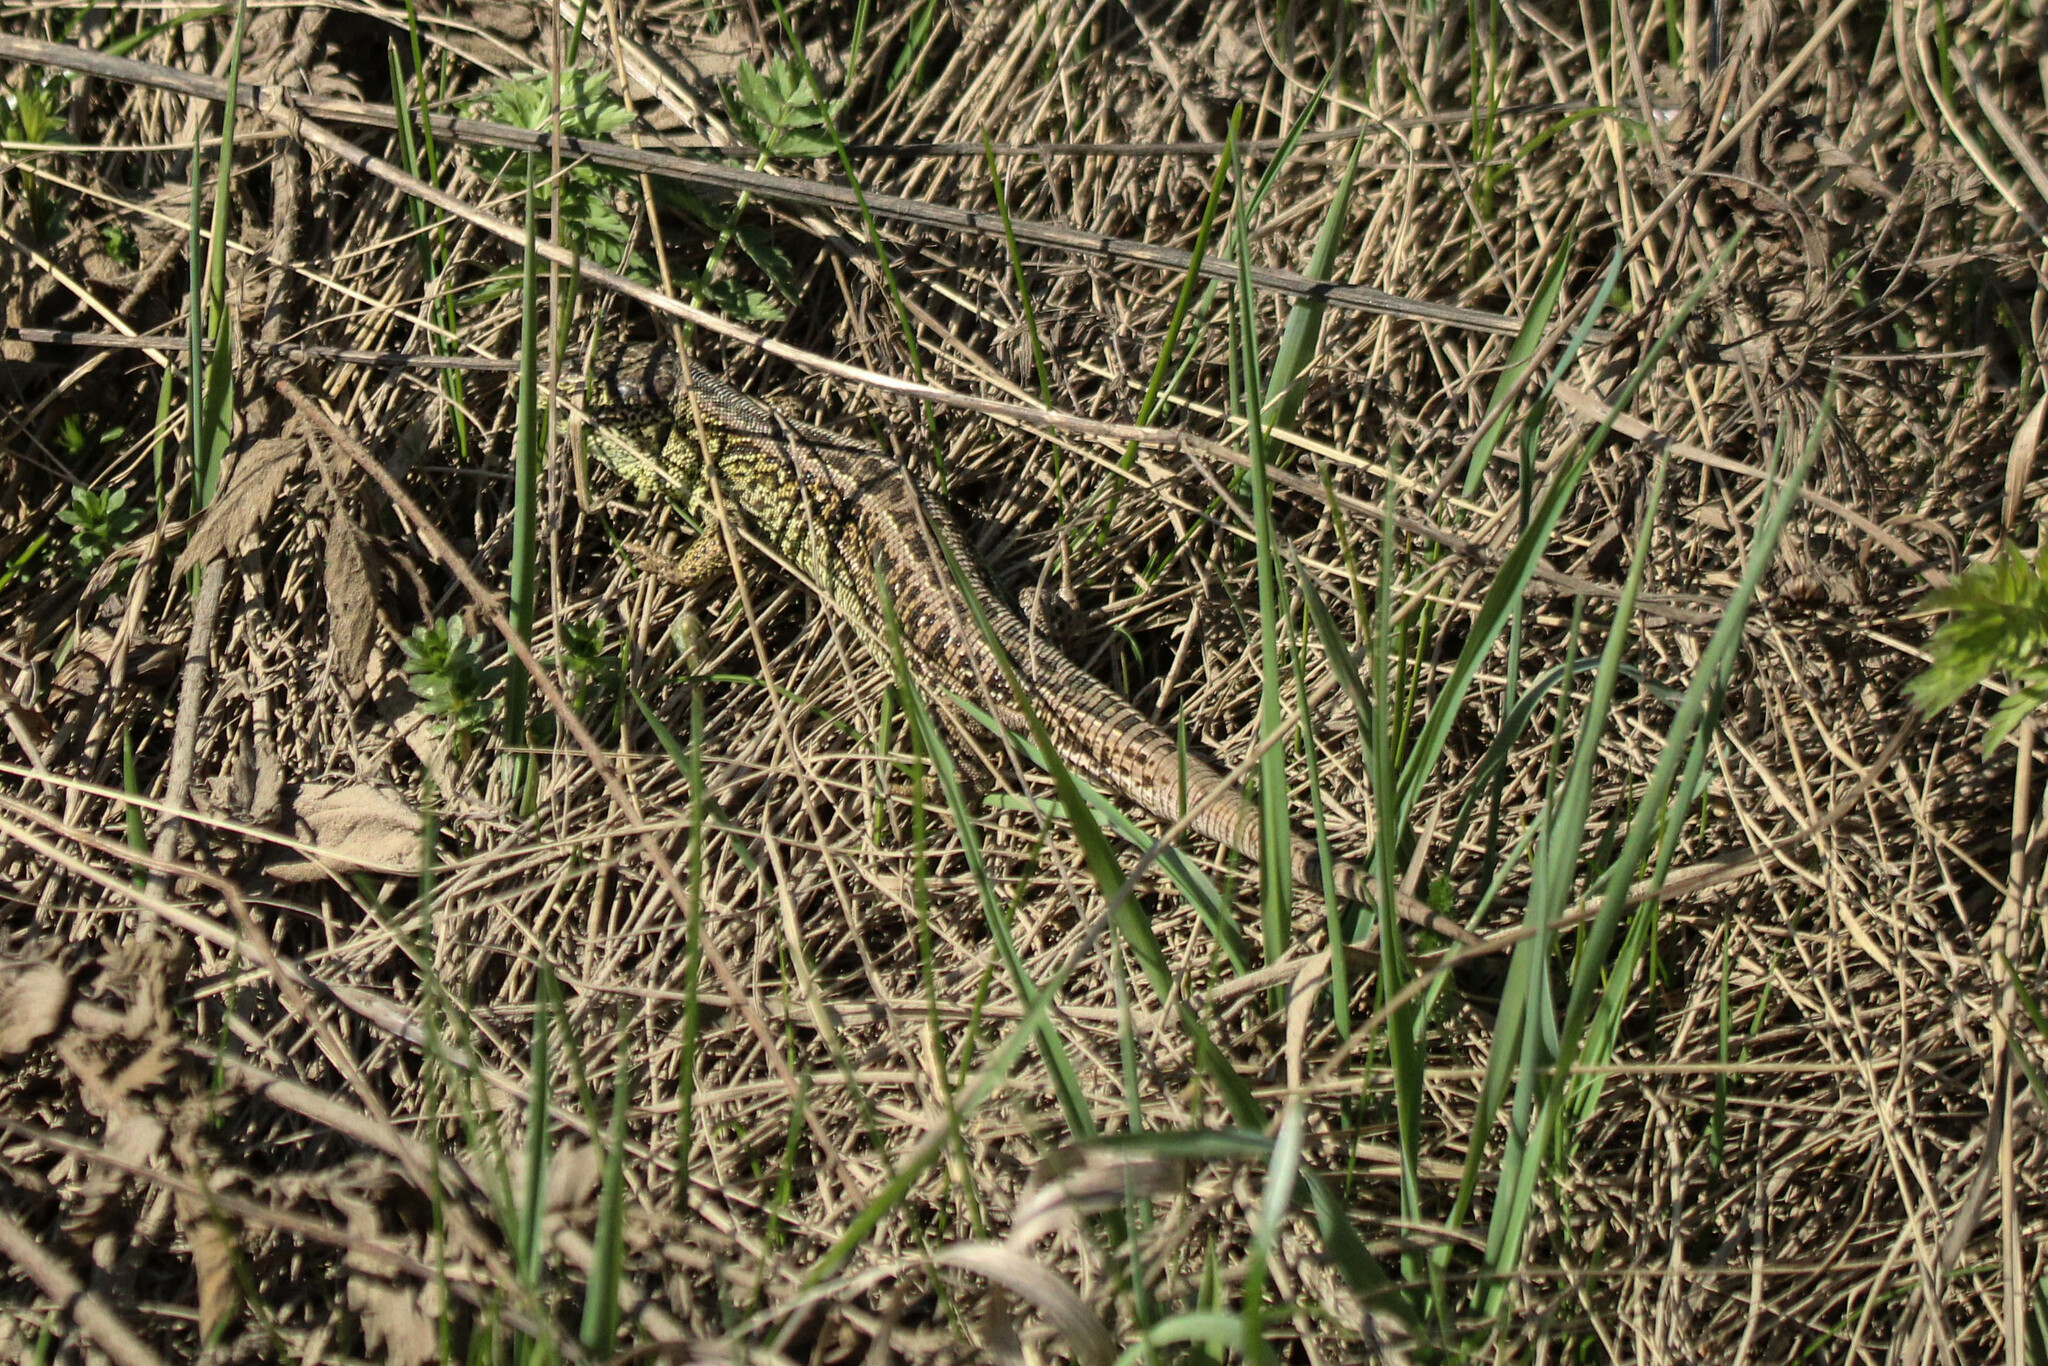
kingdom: Animalia
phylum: Chordata
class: Squamata
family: Lacertidae
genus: Lacerta
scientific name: Lacerta agilis
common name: Sand lizard
